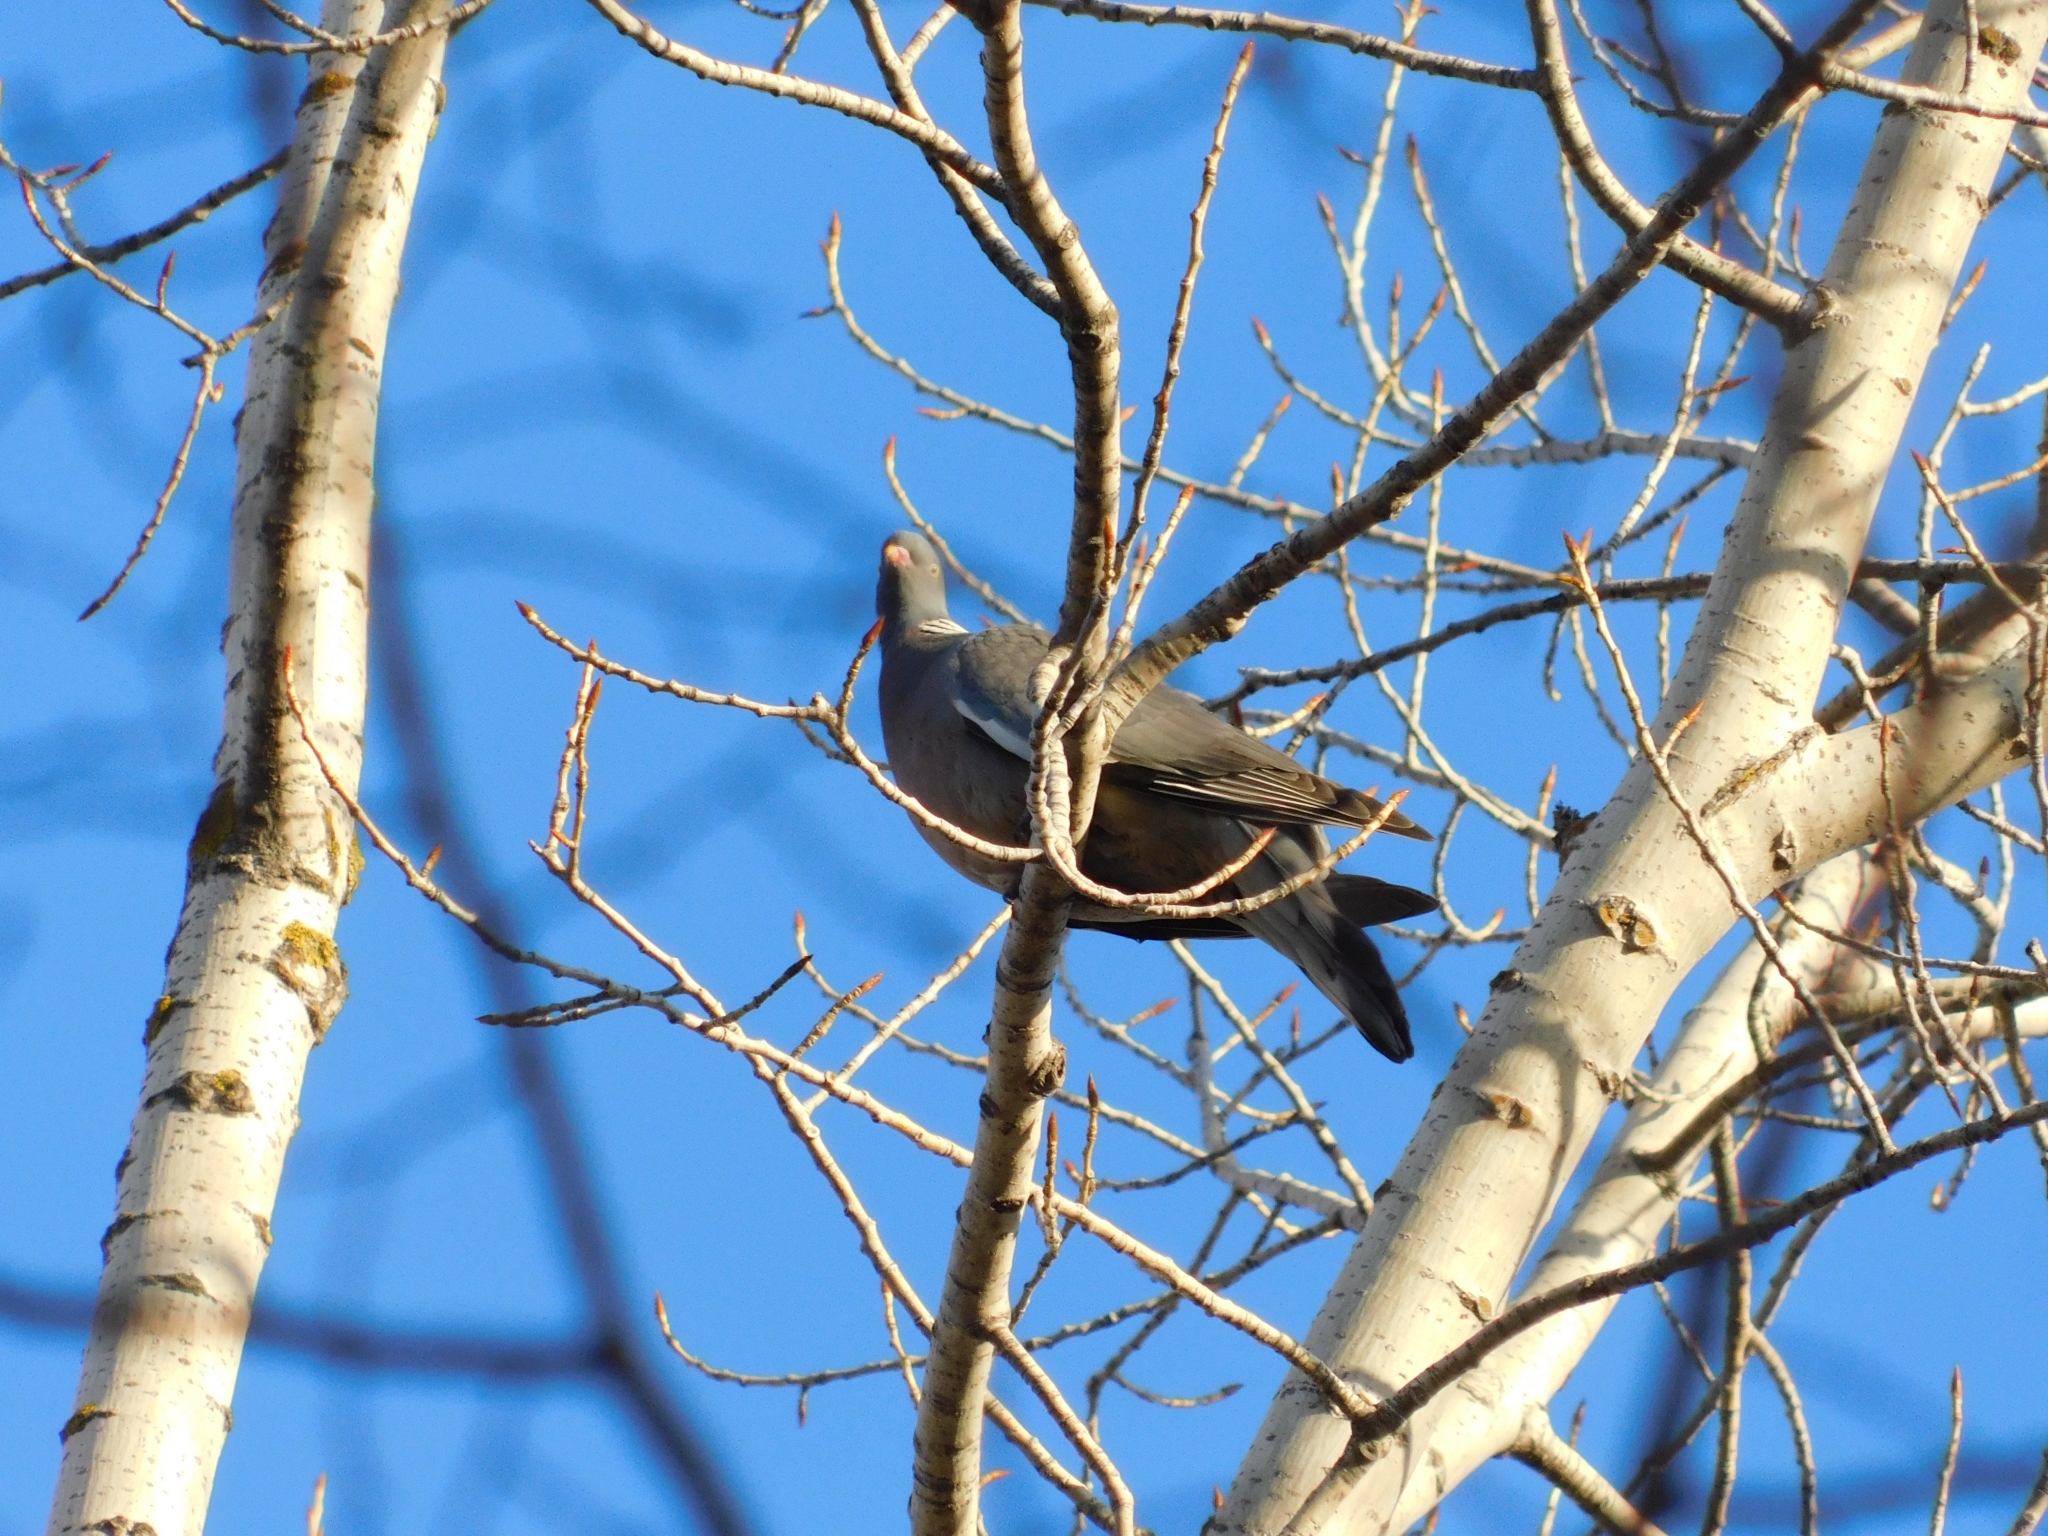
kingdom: Animalia
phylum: Chordata
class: Aves
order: Columbiformes
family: Columbidae
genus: Columba
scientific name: Columba palumbus
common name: Common wood pigeon
